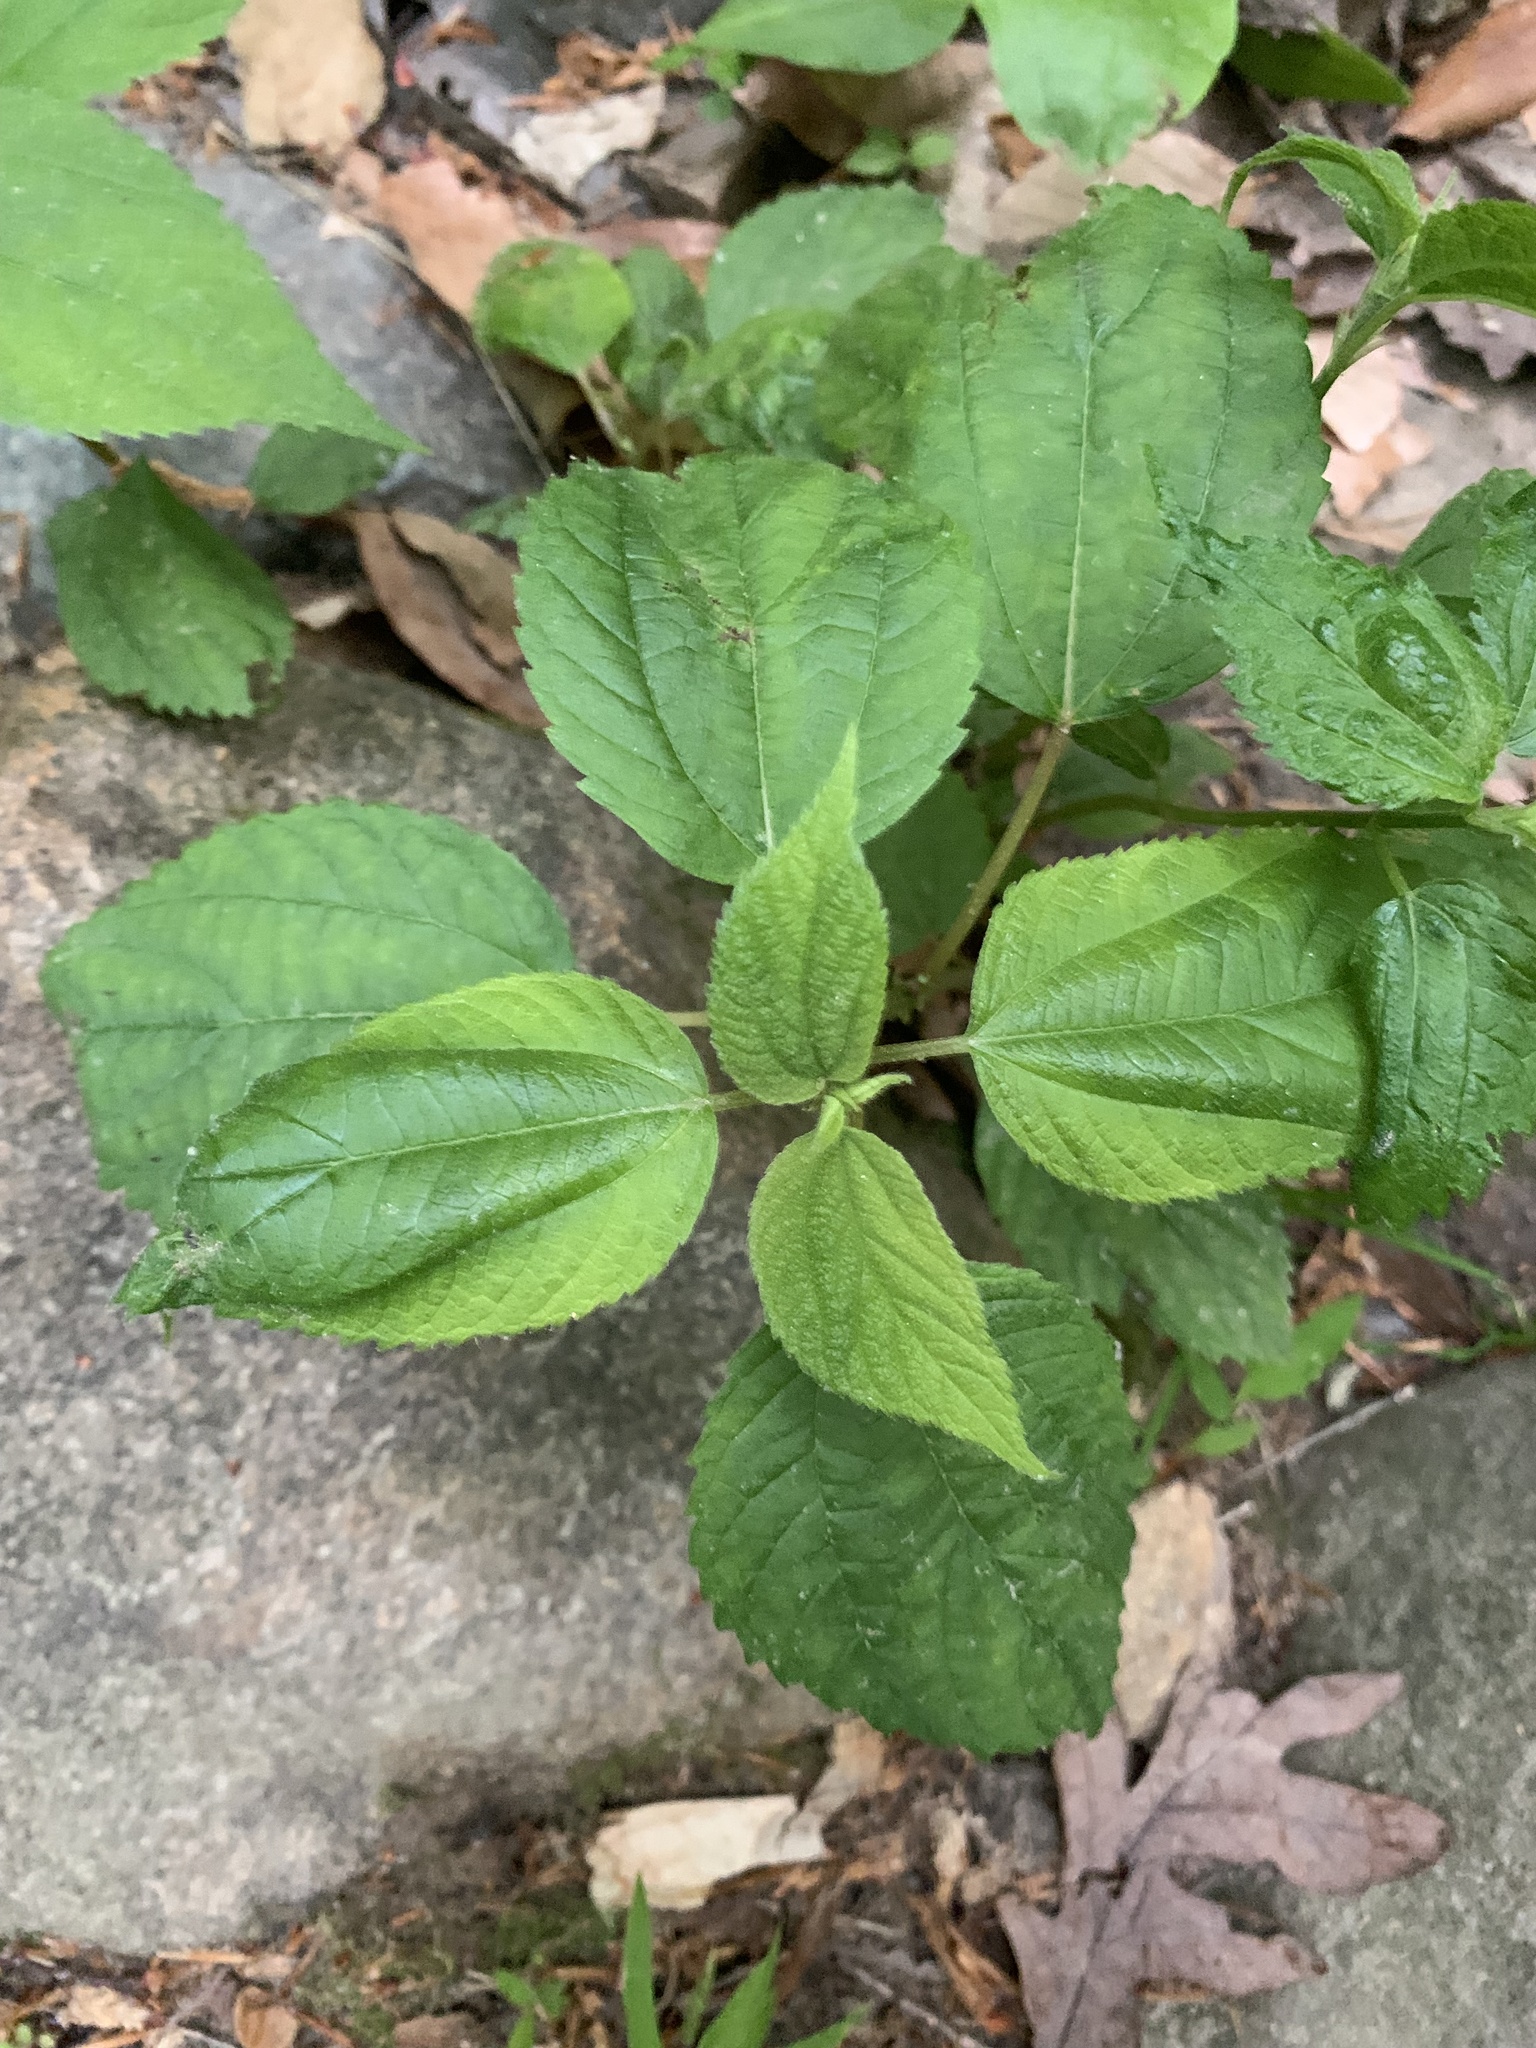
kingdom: Plantae
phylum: Tracheophyta
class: Magnoliopsida
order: Rosales
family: Urticaceae
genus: Boehmeria
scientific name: Boehmeria cylindrica
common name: Bog-hemp
